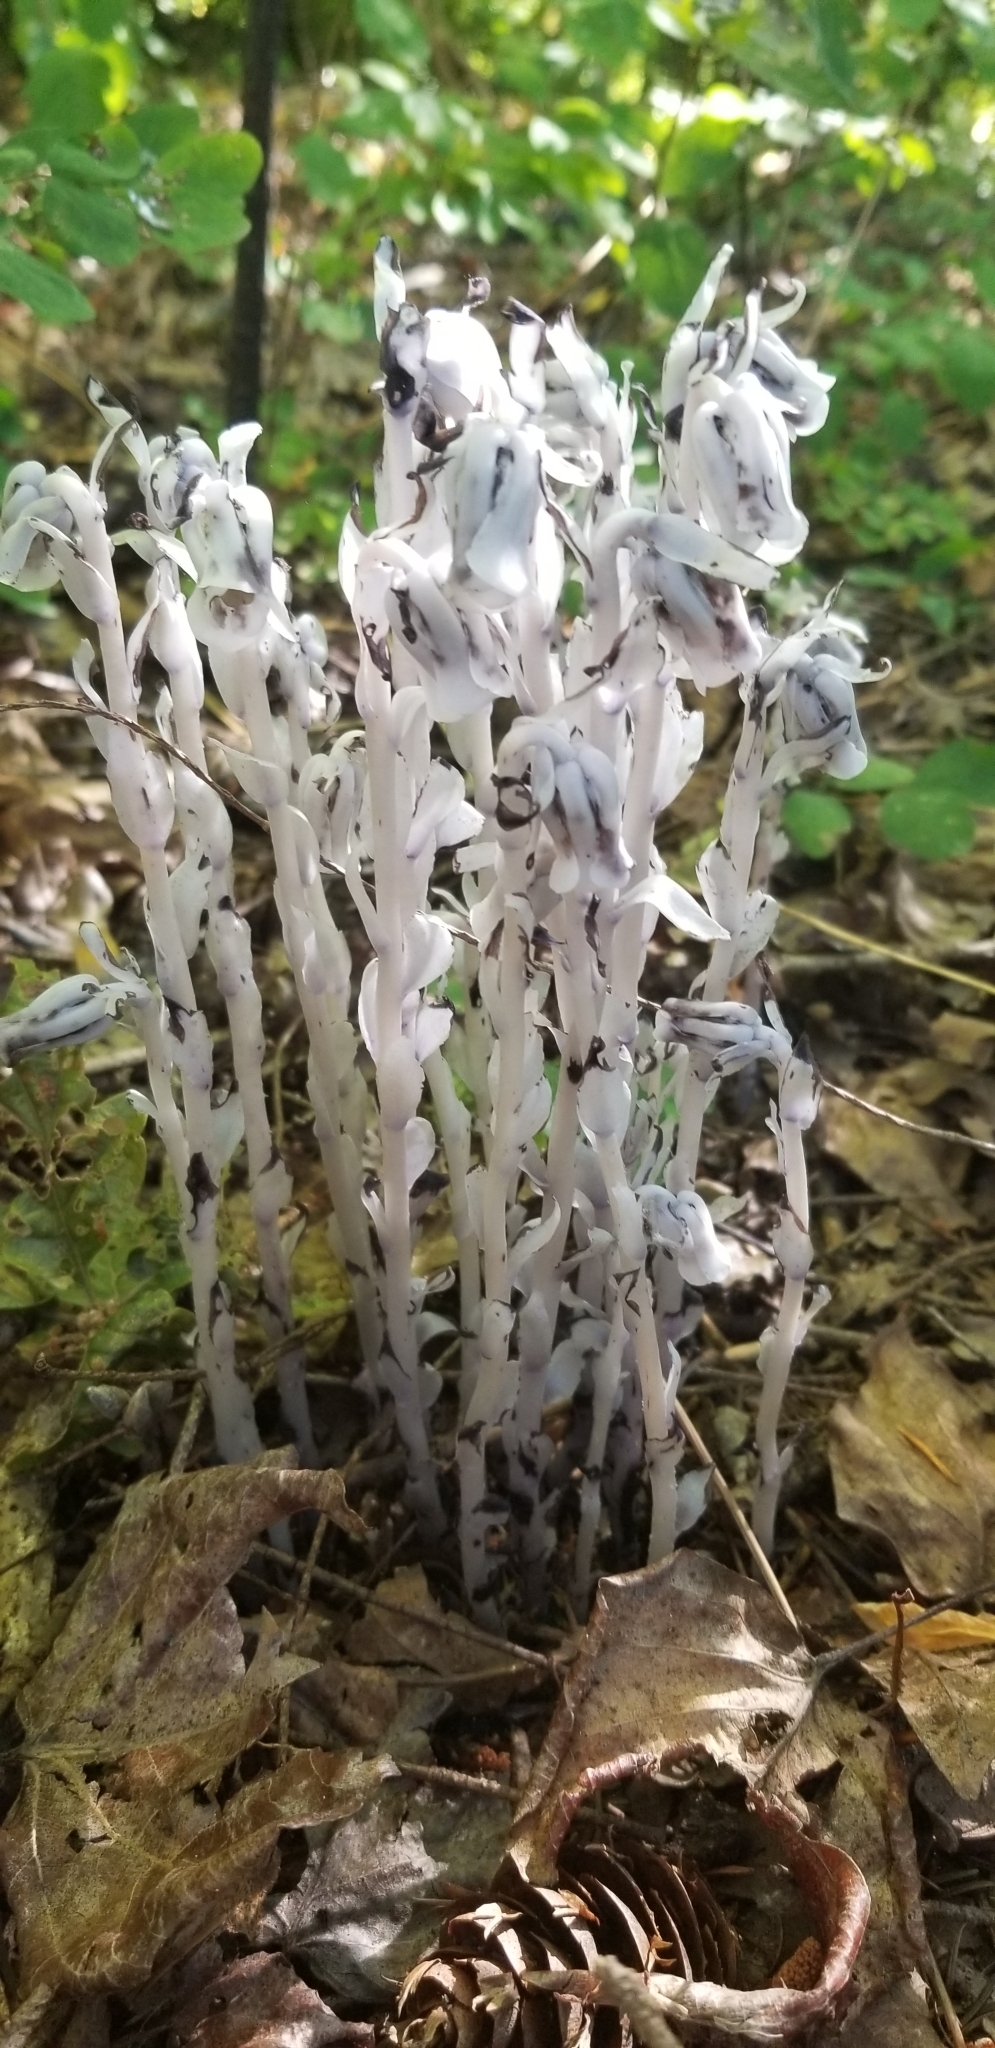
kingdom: Plantae
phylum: Tracheophyta
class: Magnoliopsida
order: Ericales
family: Ericaceae
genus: Monotropa
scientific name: Monotropa uniflora
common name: Convulsion root
